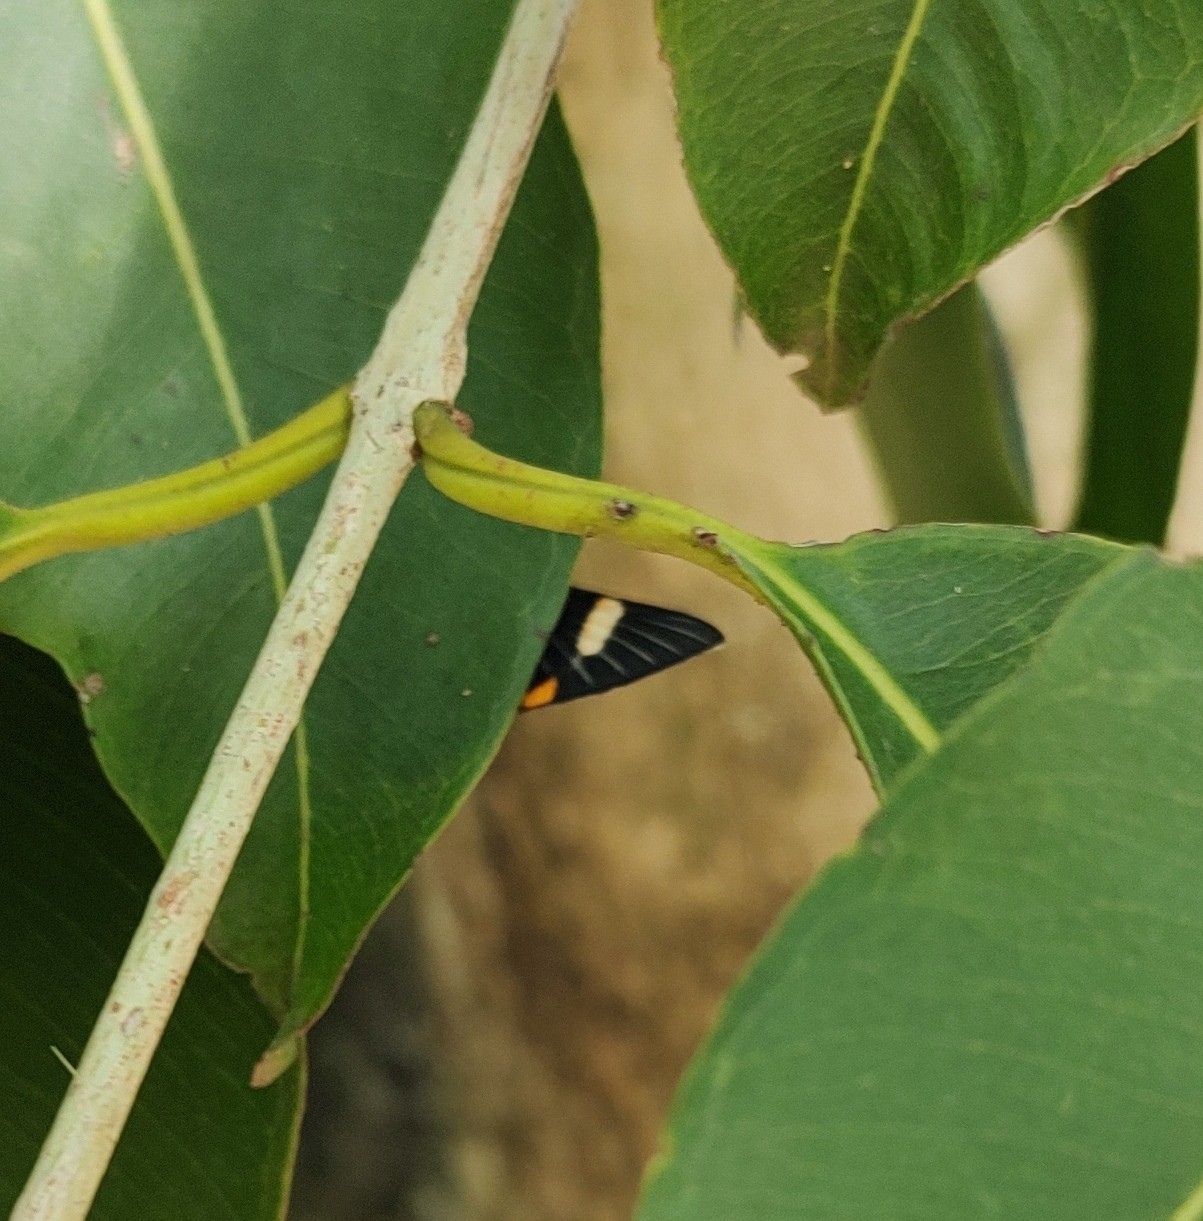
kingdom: Animalia
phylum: Arthropoda
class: Insecta
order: Lepidoptera
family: Riodinidae
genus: Riodina
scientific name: Riodina lycisca
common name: Lycisca metalmark
